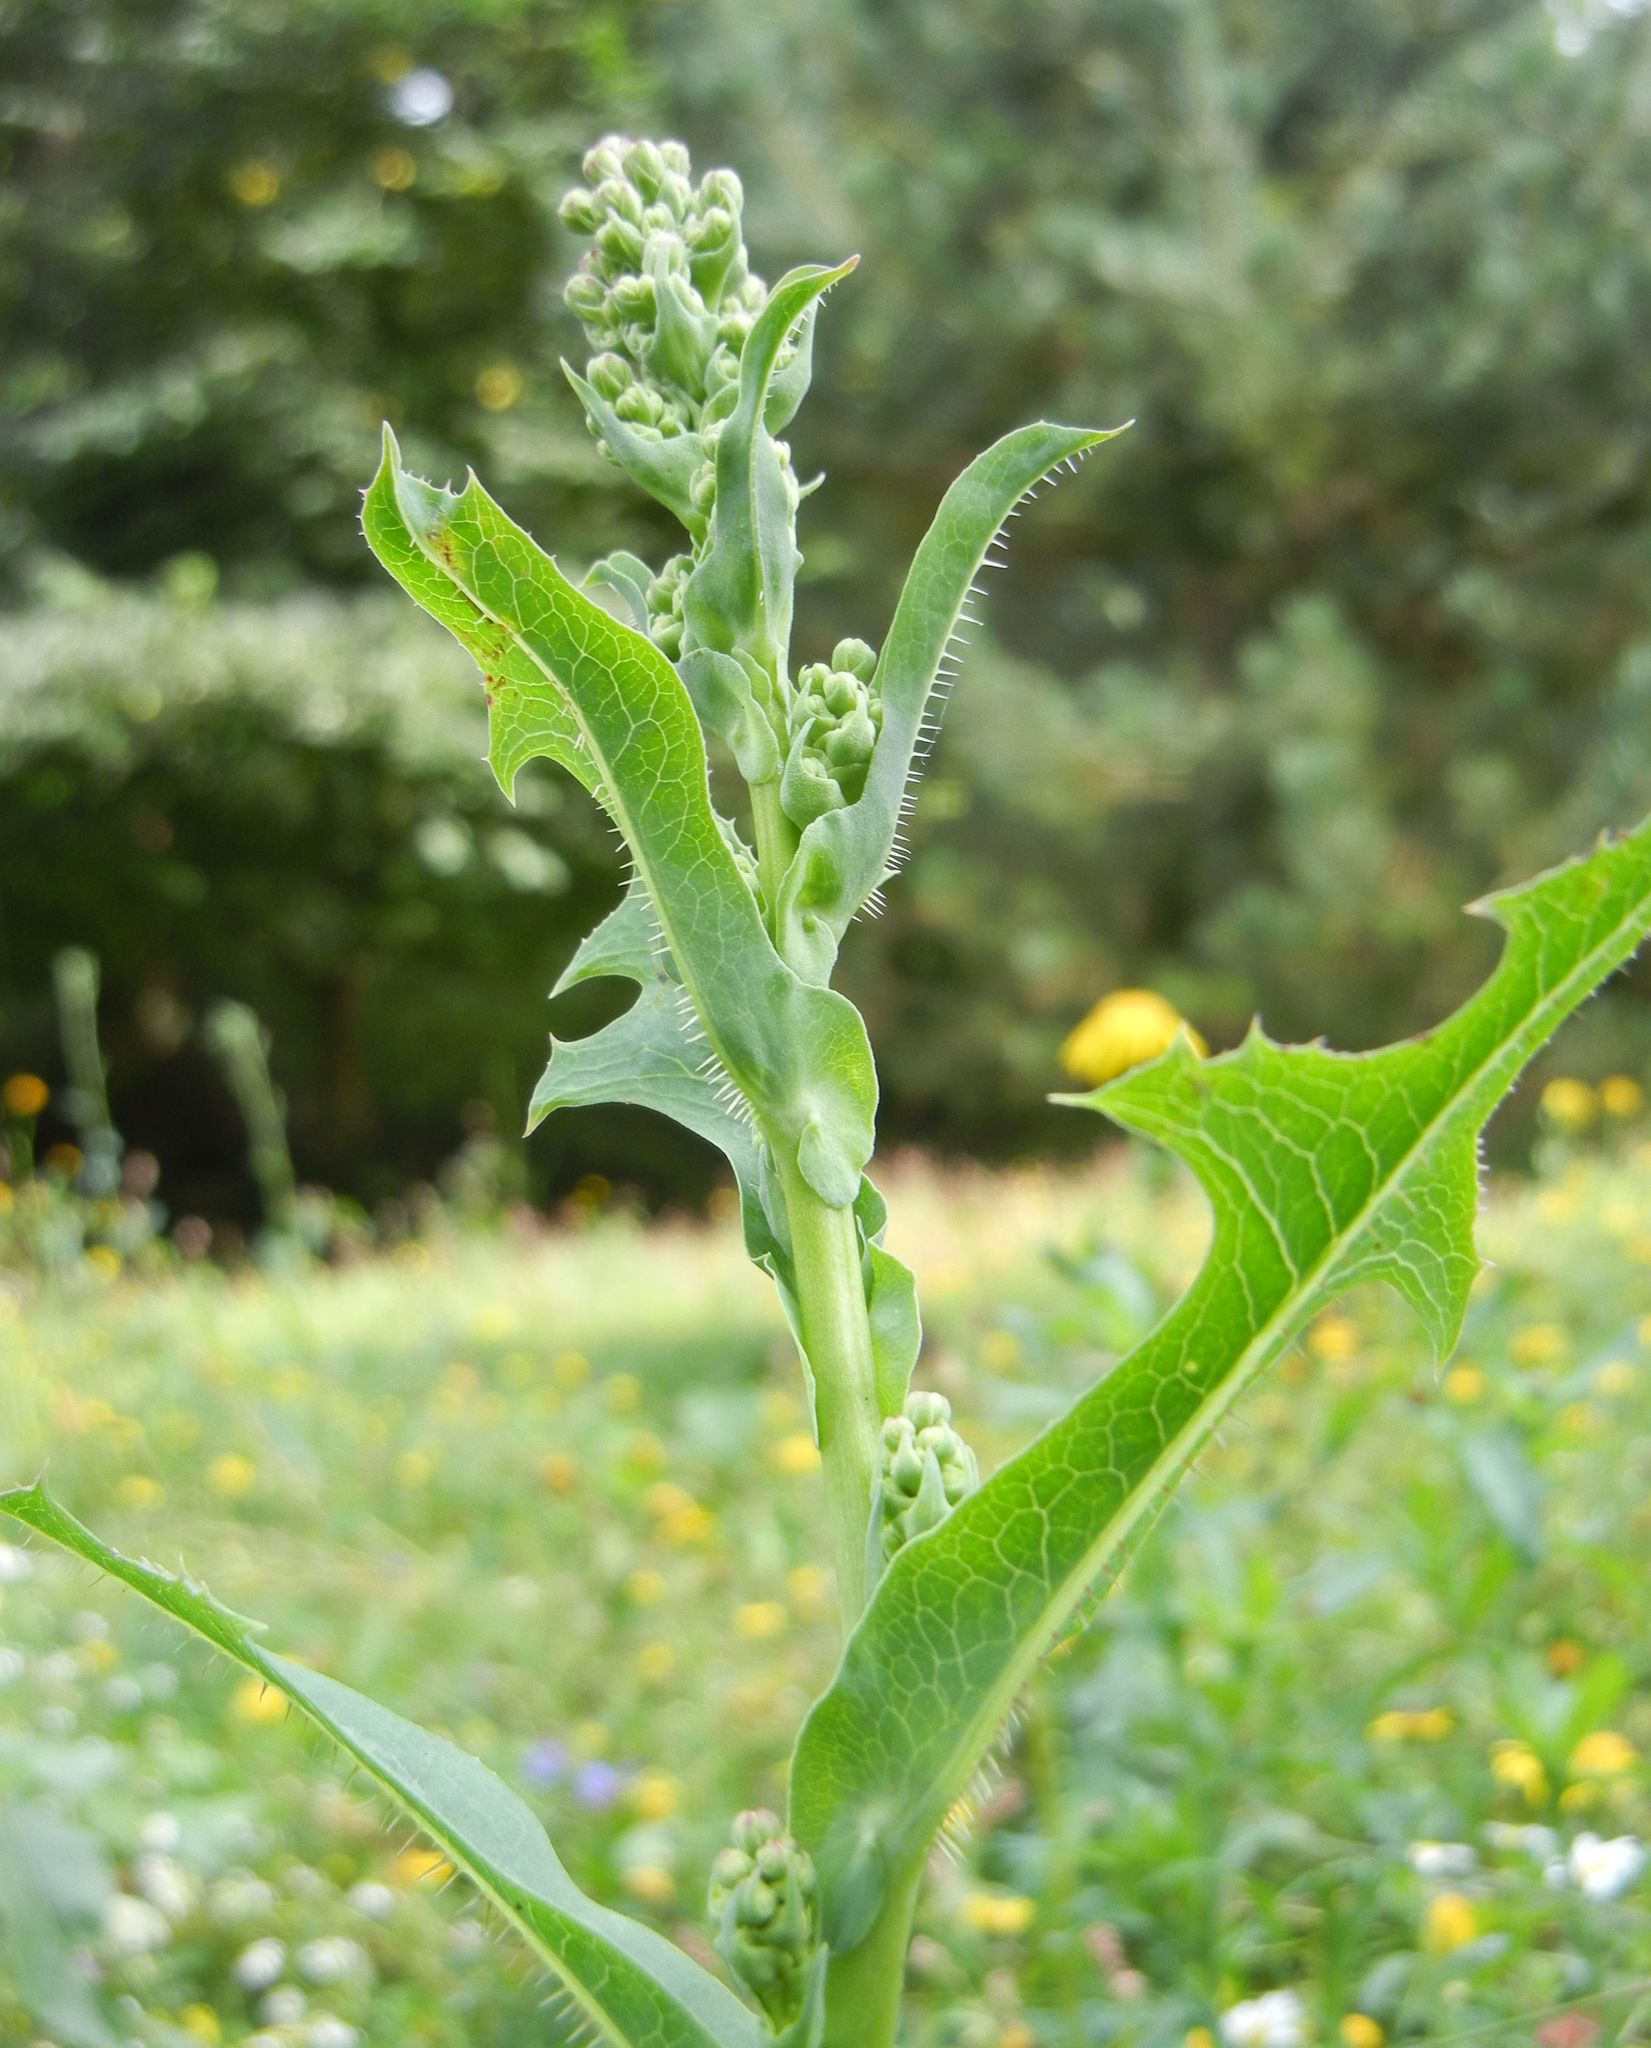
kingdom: Plantae
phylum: Tracheophyta
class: Magnoliopsida
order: Asterales
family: Asteraceae
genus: Lactuca
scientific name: Lactuca serriola
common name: Prickly lettuce
